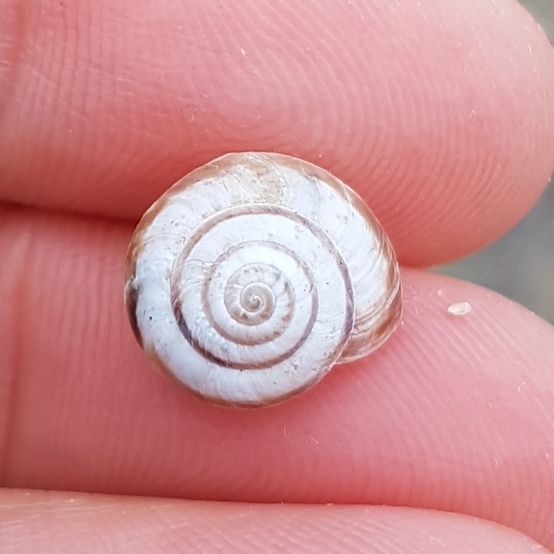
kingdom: Animalia
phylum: Mollusca
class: Gastropoda
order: Stylommatophora
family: Geomitridae
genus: Cernuella
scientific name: Cernuella virgata
